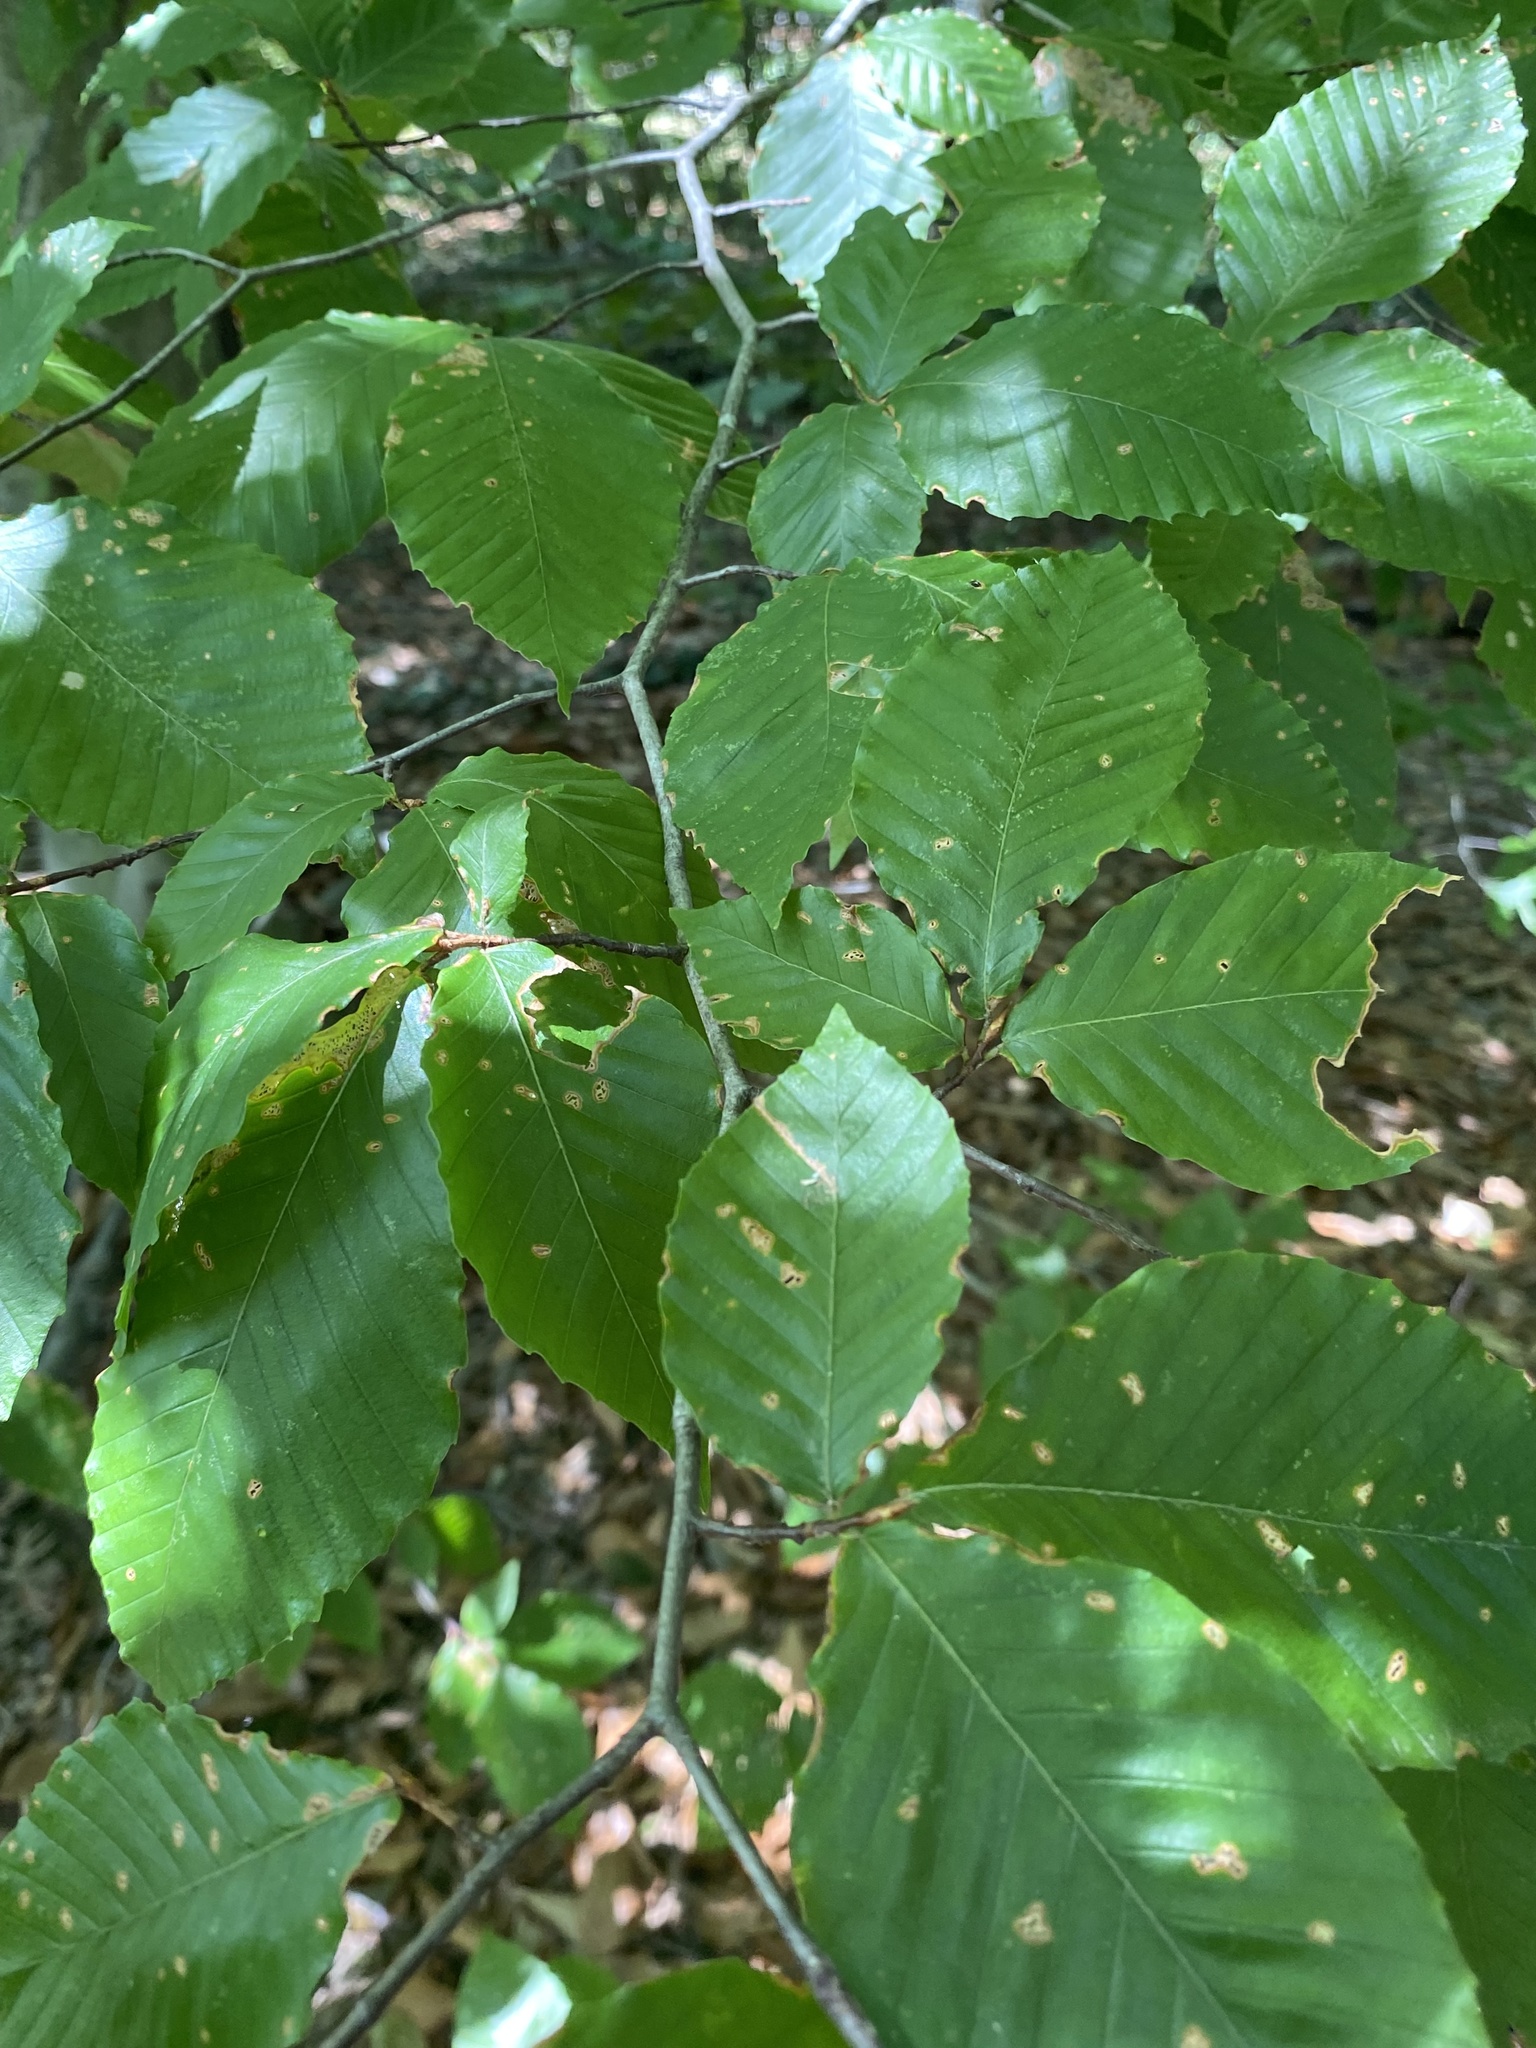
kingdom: Plantae
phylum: Tracheophyta
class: Magnoliopsida
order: Fagales
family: Fagaceae
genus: Fagus
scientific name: Fagus grandifolia
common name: American beech
